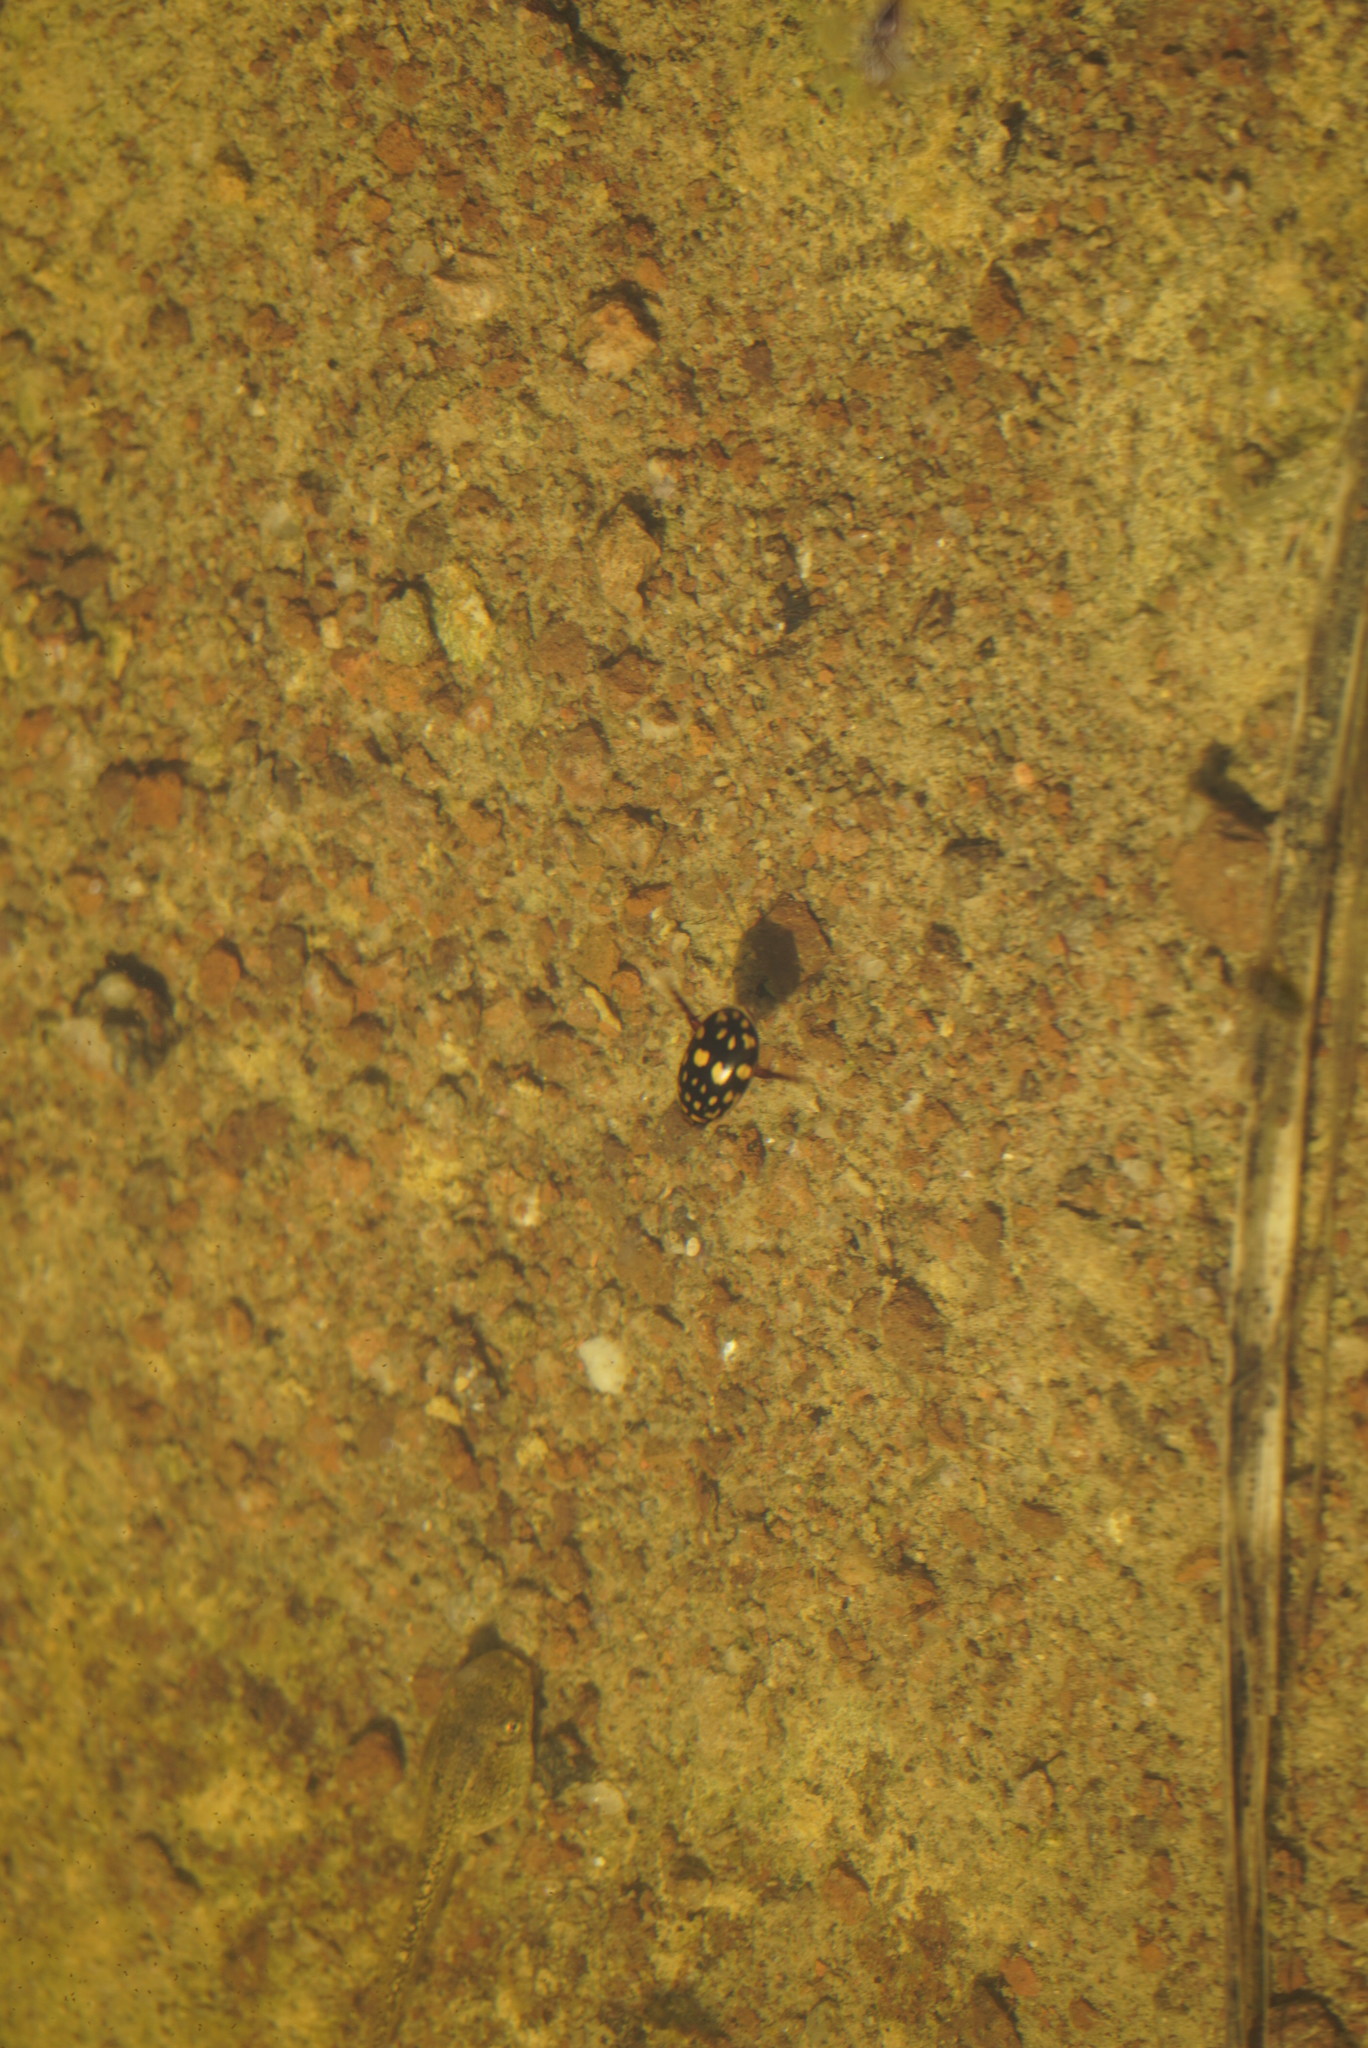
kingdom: Animalia
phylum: Arthropoda
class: Insecta
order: Coleoptera
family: Dytiscidae
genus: Thermonectus
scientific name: Thermonectus marmoratus
